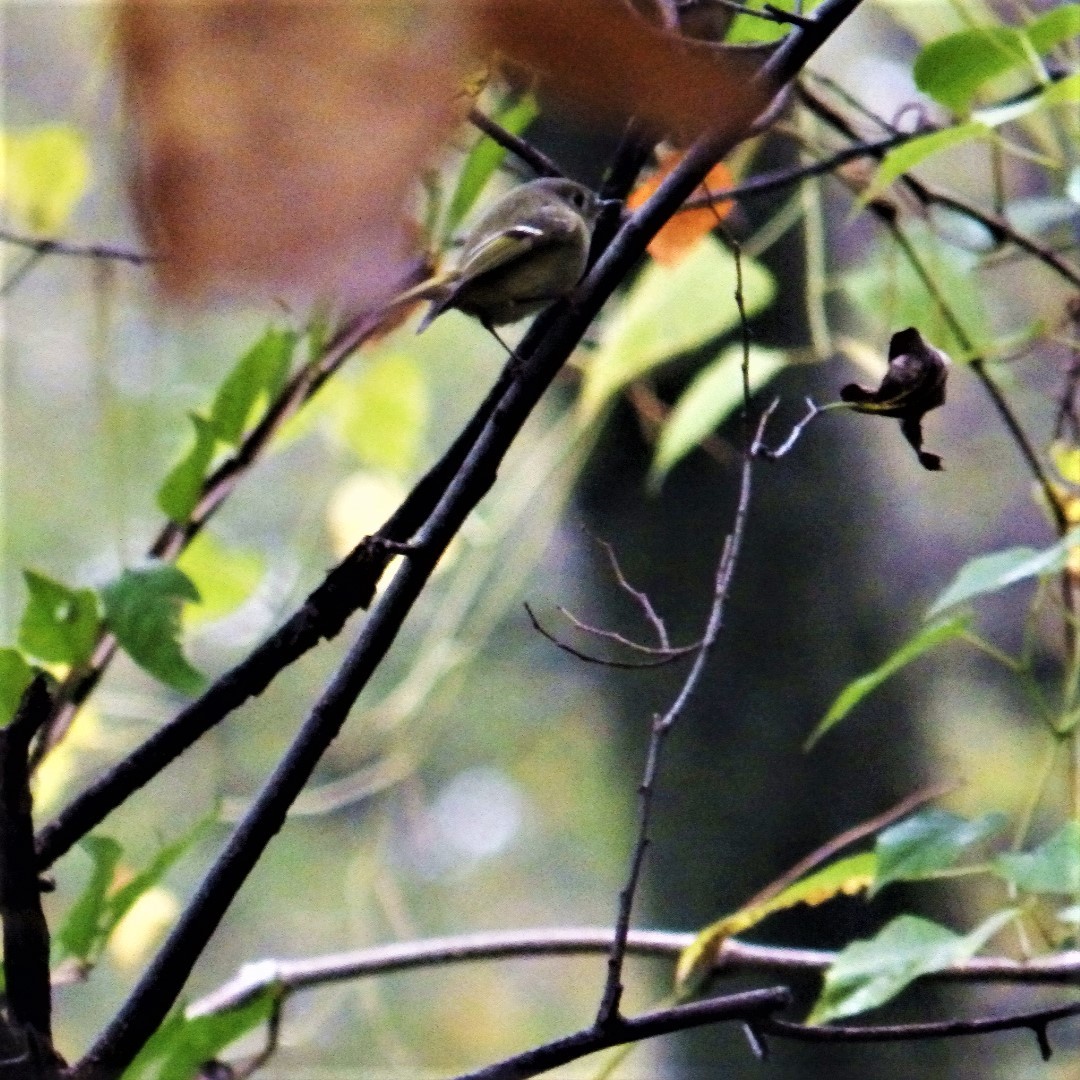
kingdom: Animalia
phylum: Chordata
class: Aves
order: Passeriformes
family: Regulidae
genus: Regulus
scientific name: Regulus calendula
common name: Ruby-crowned kinglet
